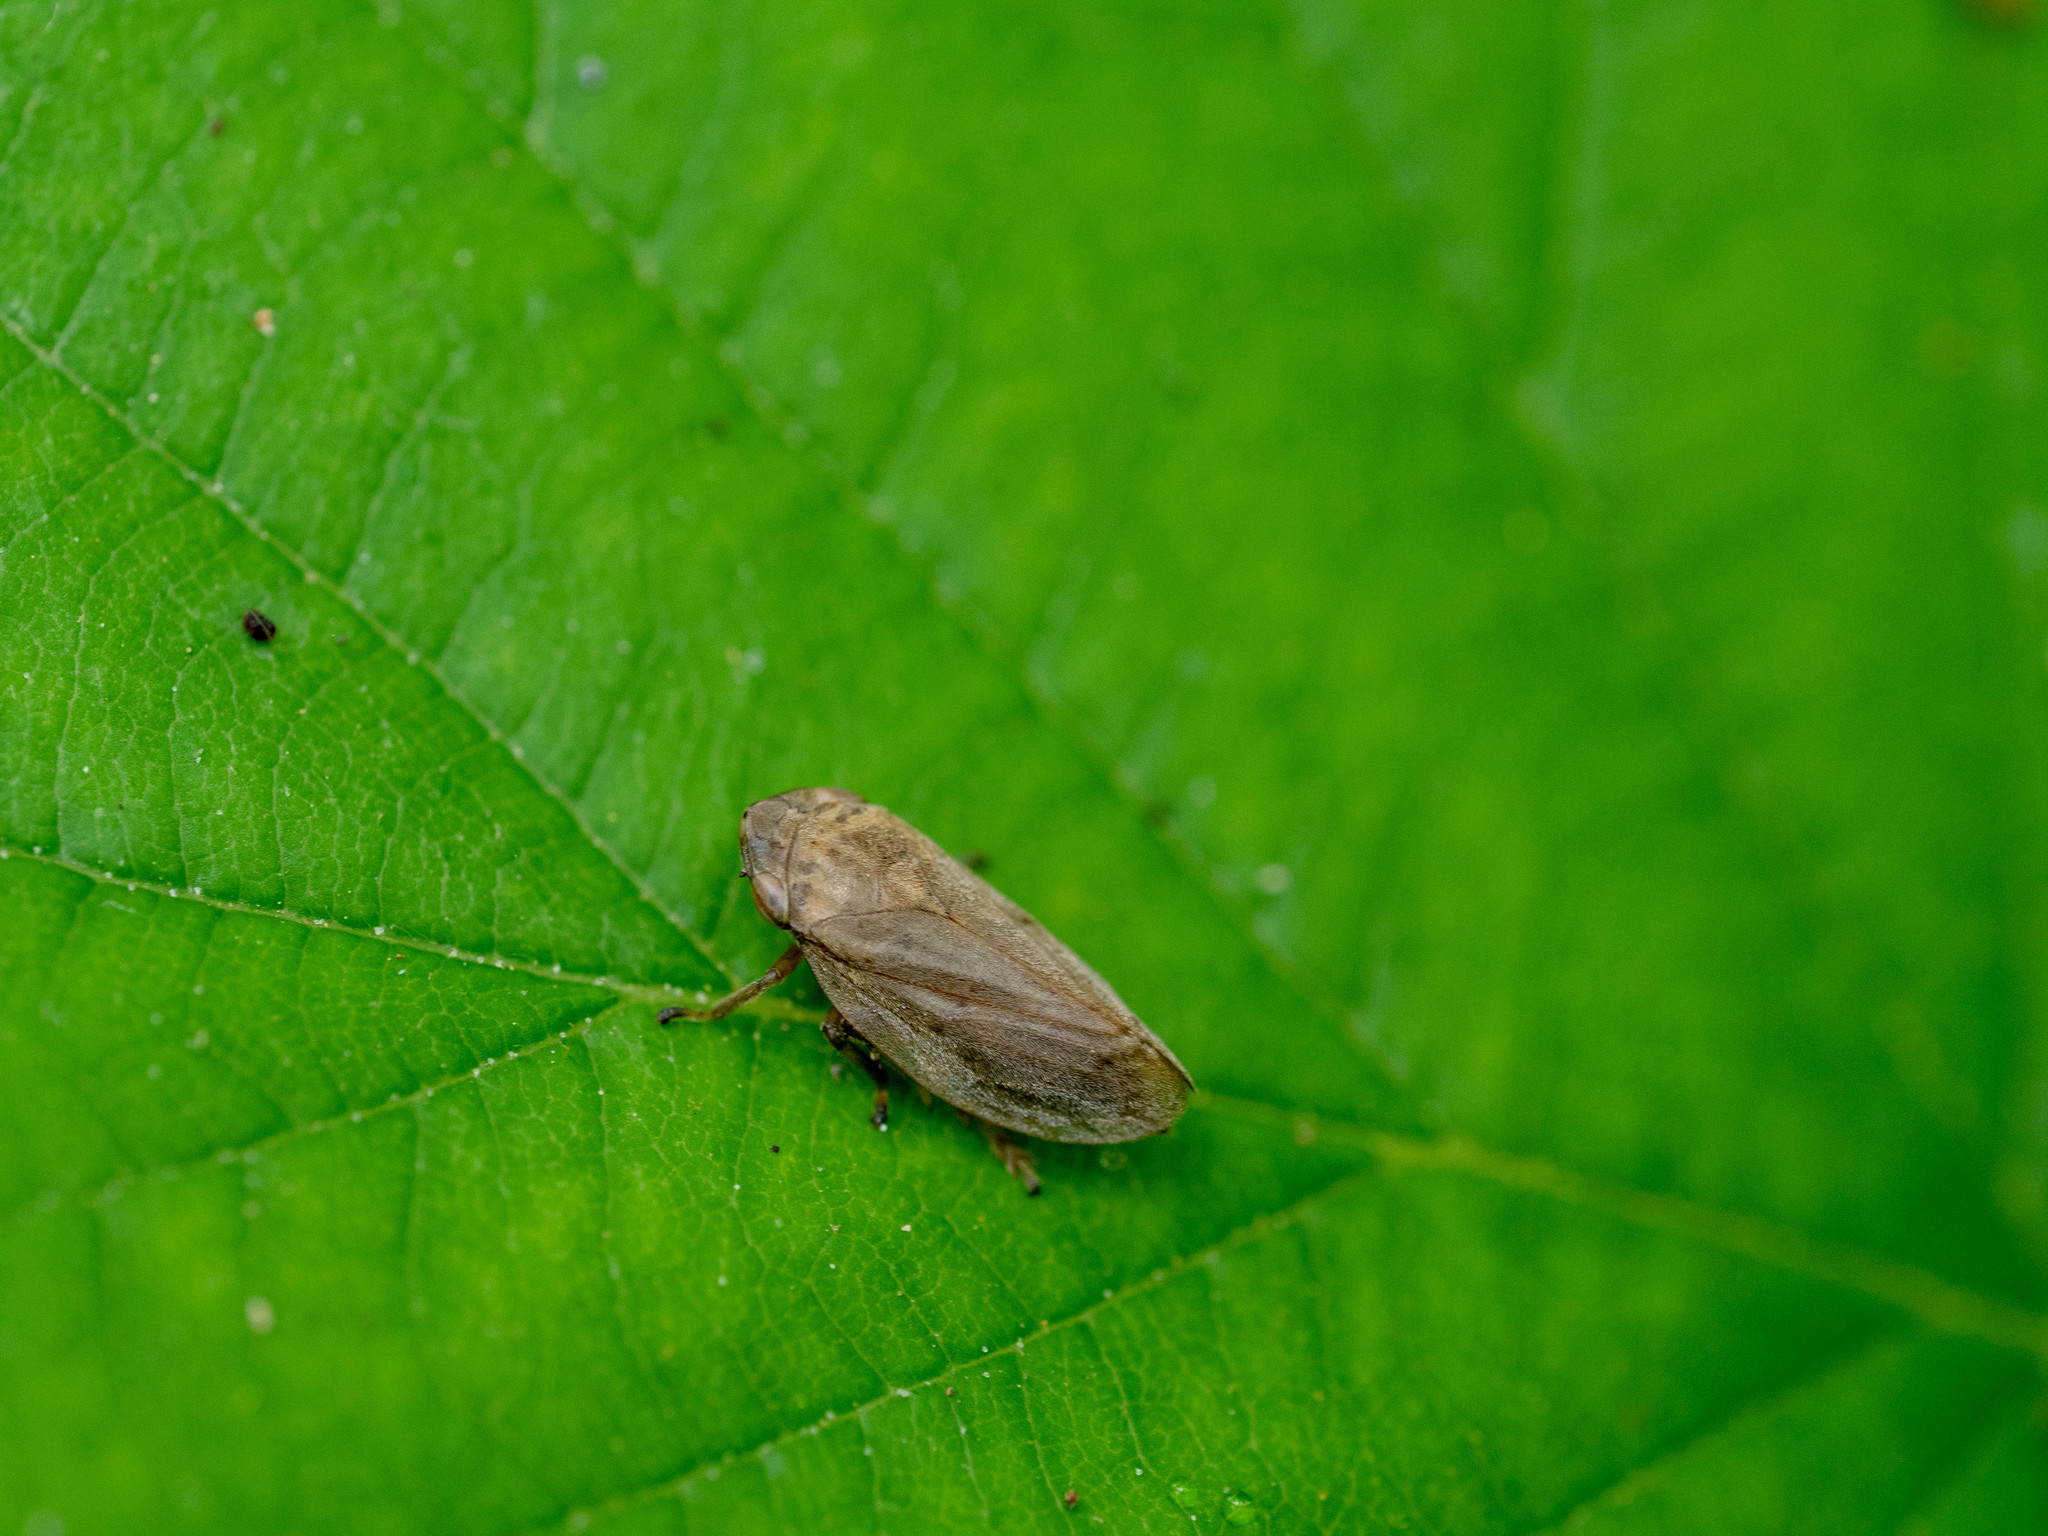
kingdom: Animalia
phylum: Arthropoda
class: Insecta
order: Hemiptera
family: Aphrophoridae
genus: Philaenus
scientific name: Philaenus spumarius
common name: Meadow spittlebug
